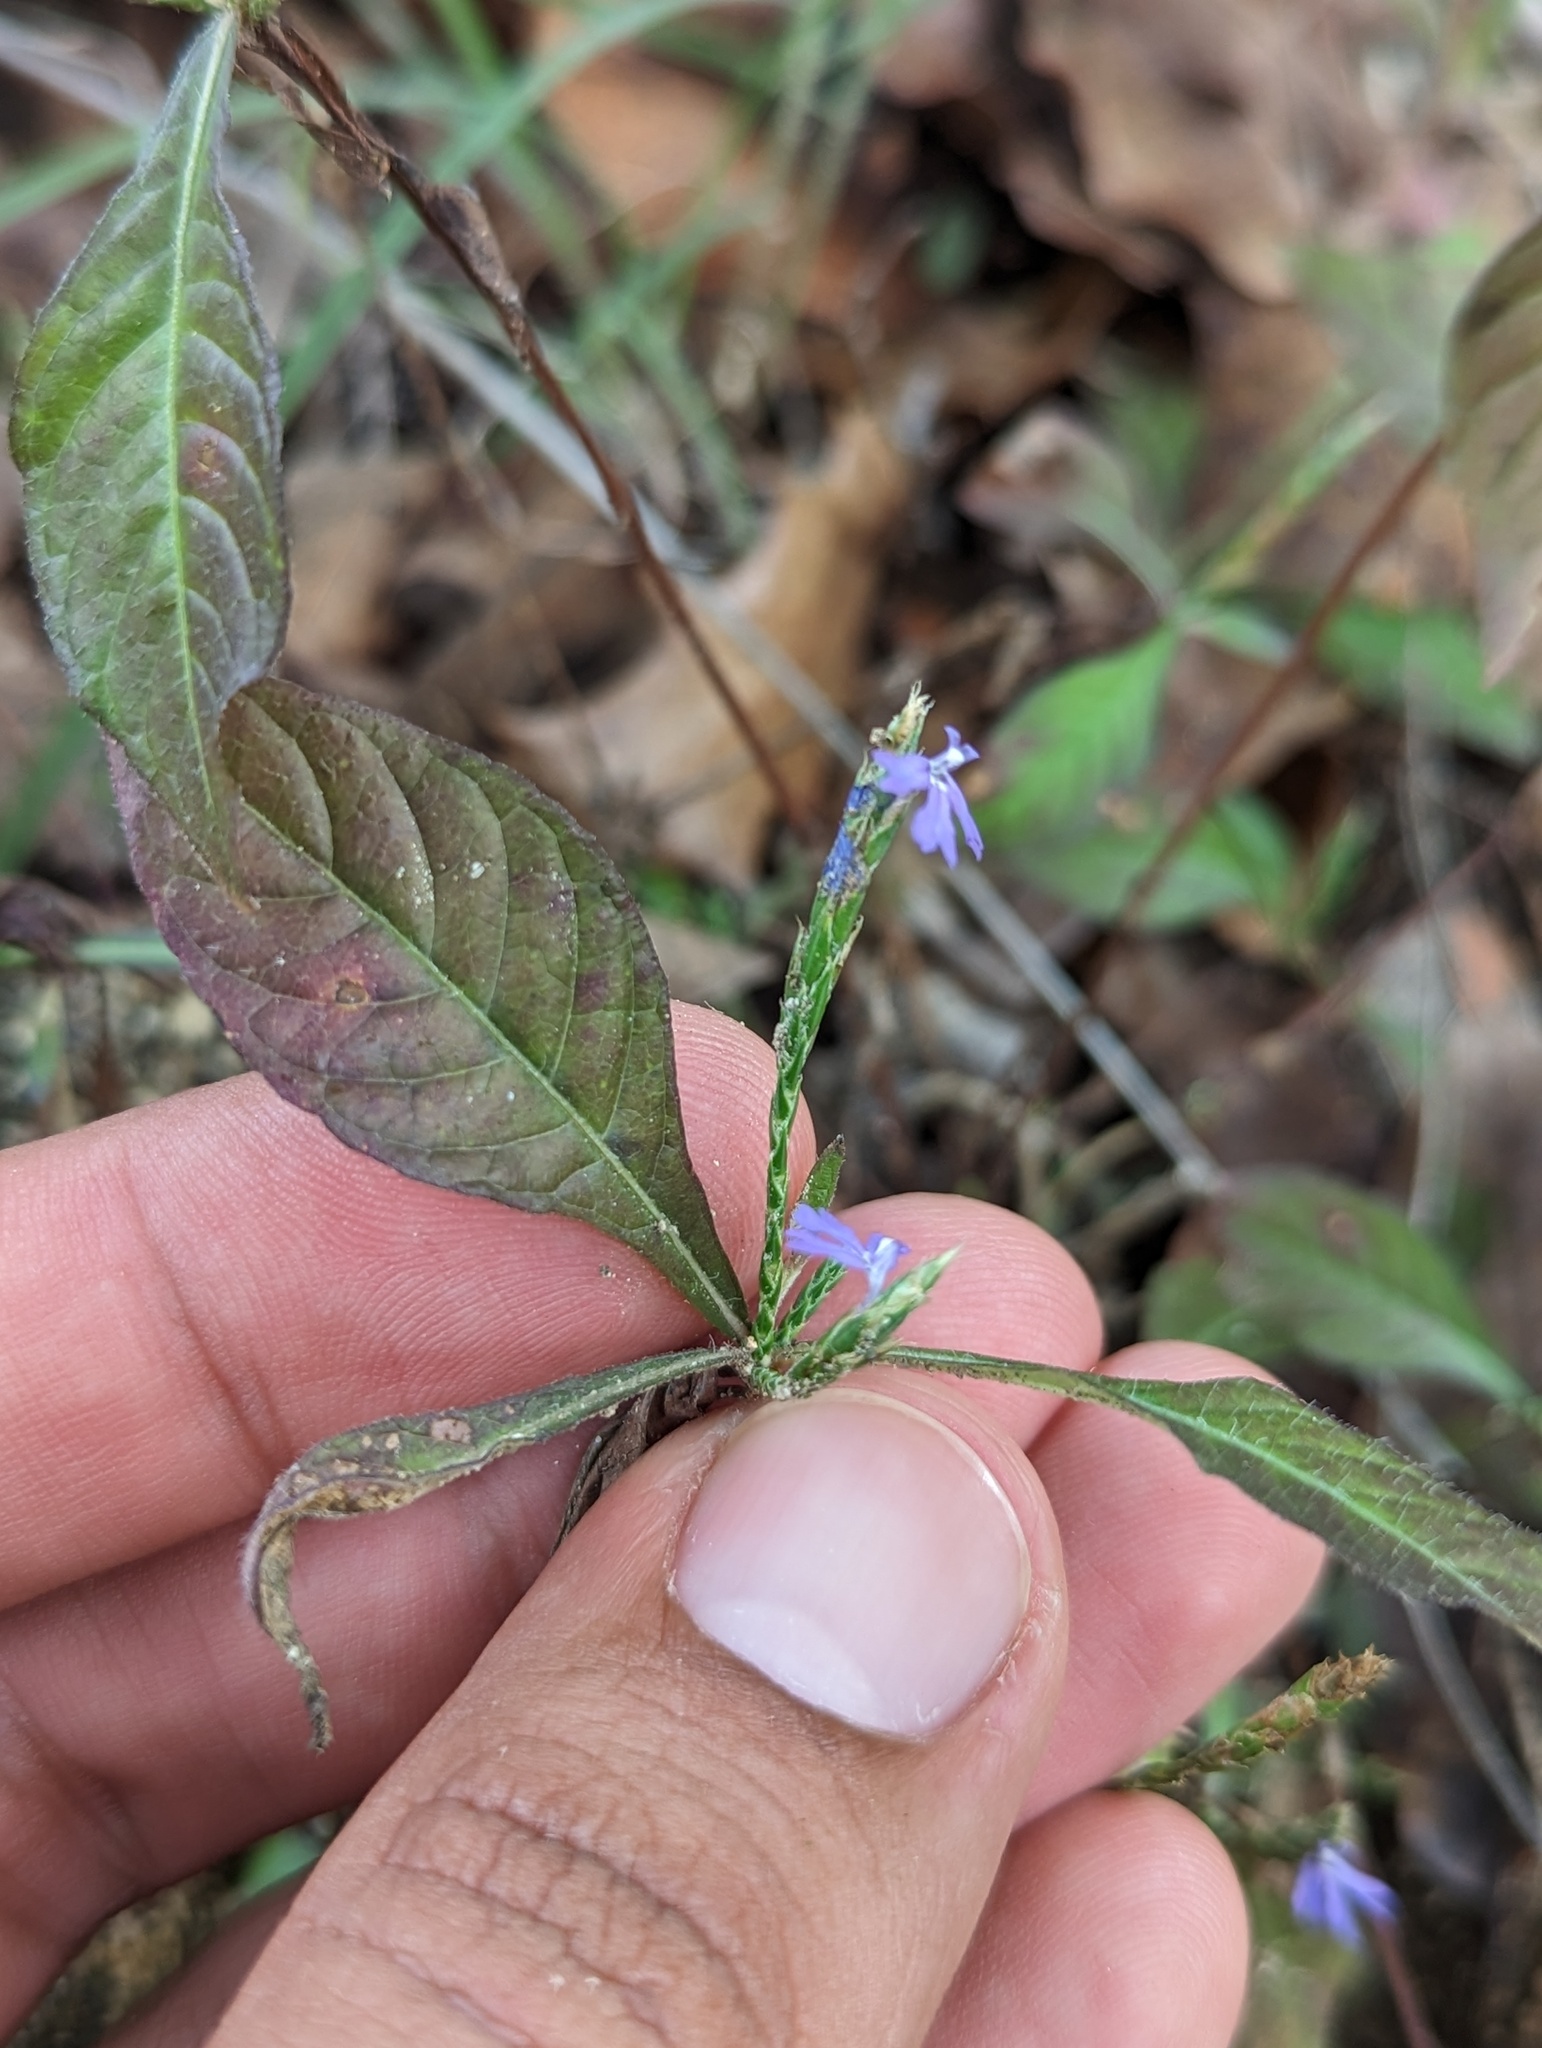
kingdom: Plantae
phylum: Tracheophyta
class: Magnoliopsida
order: Lamiales
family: Acanthaceae
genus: Elytraria
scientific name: Elytraria imbricata
